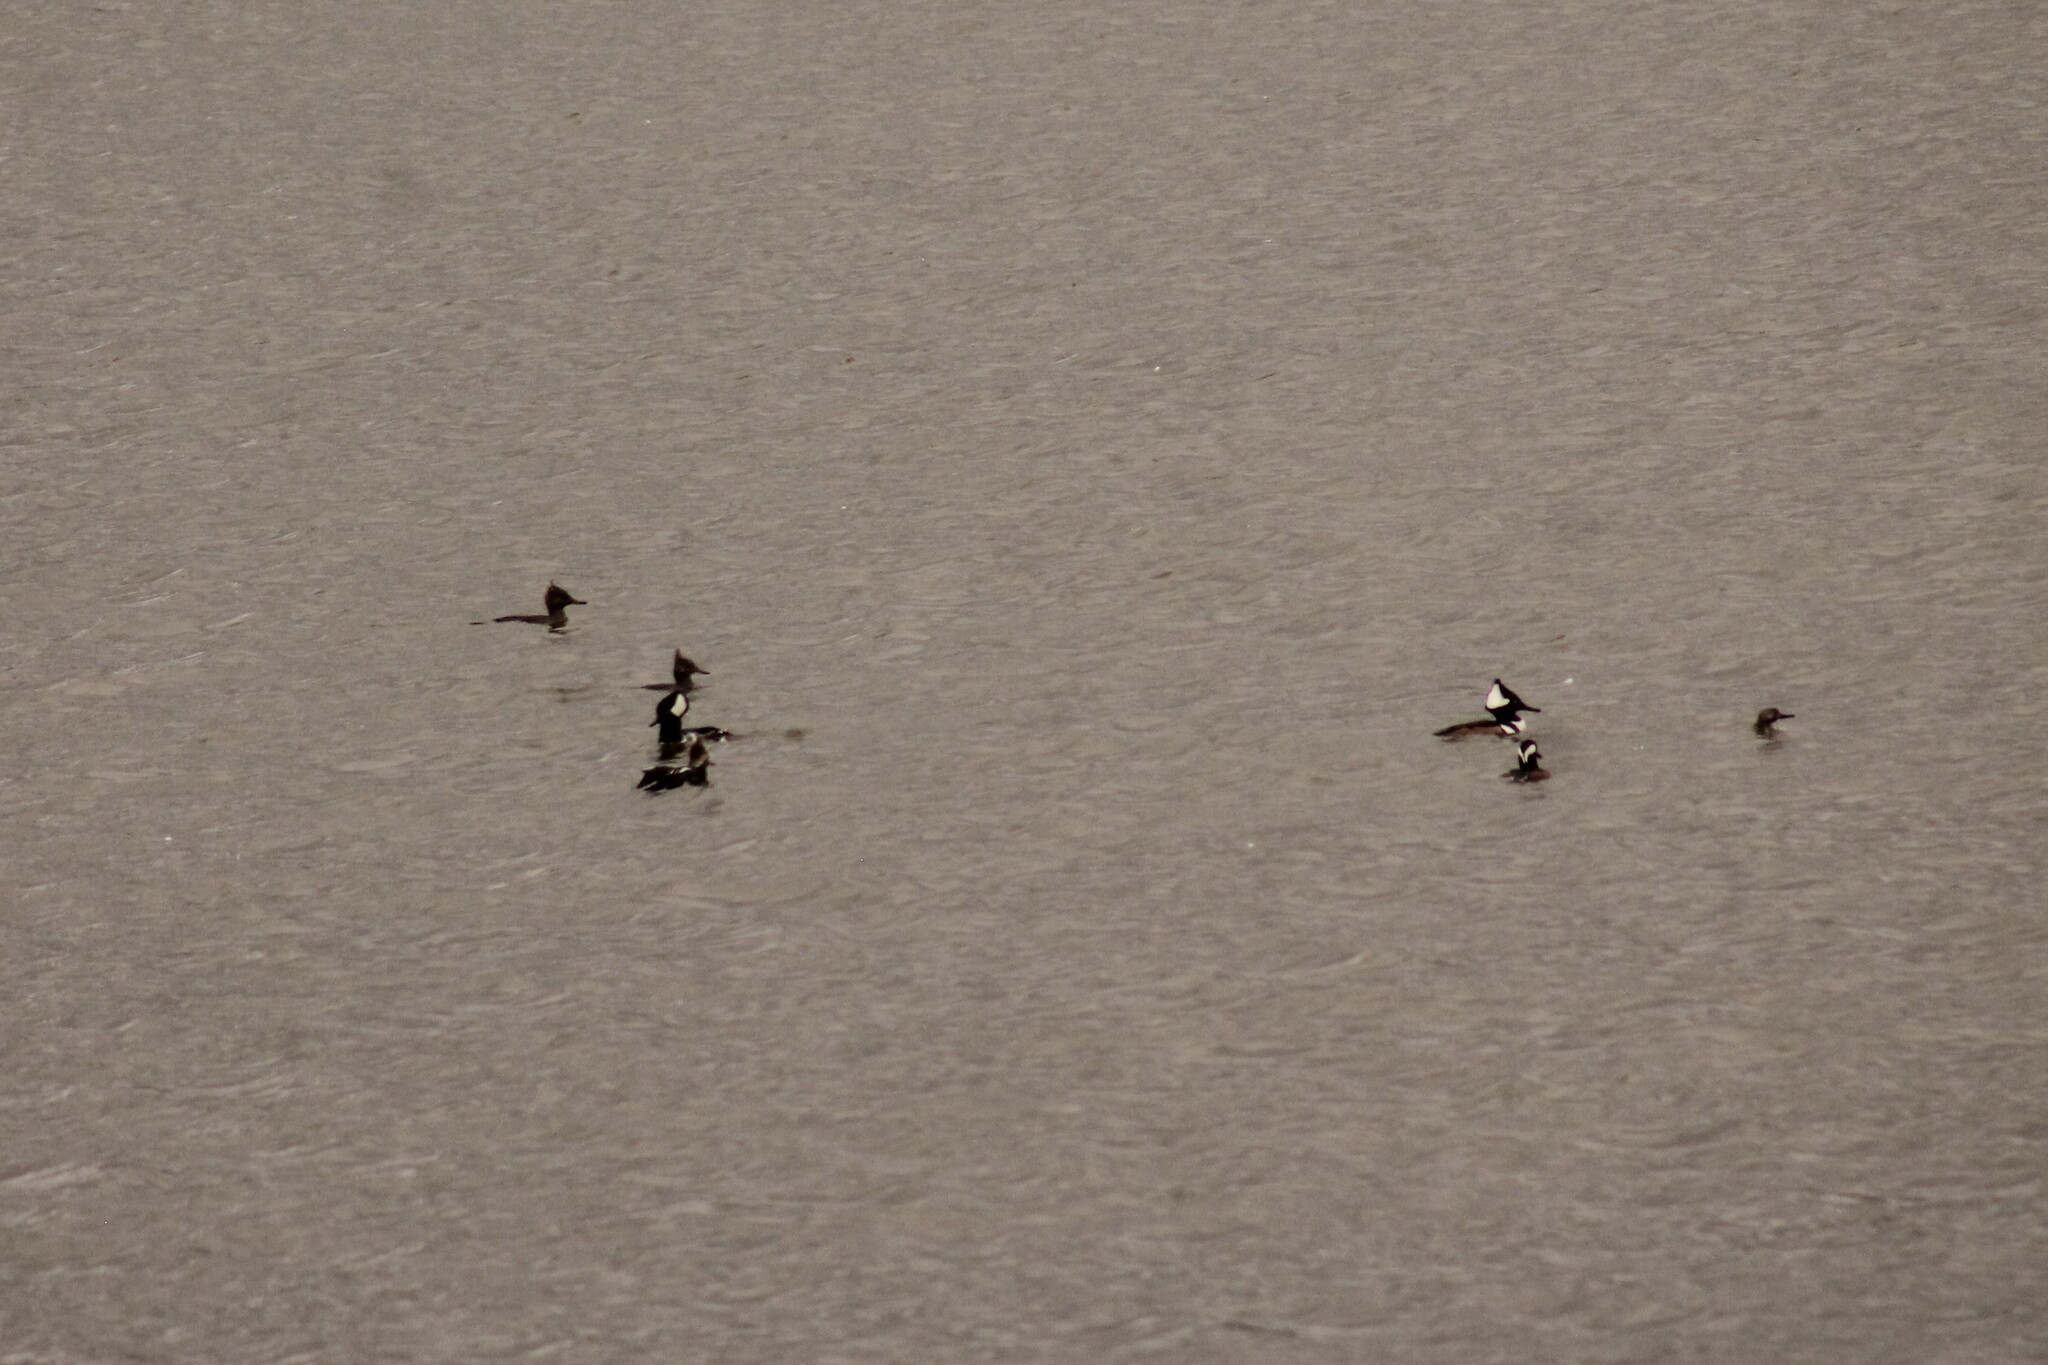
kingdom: Animalia
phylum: Chordata
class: Aves
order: Anseriformes
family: Anatidae
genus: Lophodytes
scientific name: Lophodytes cucullatus
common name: Hooded merganser
